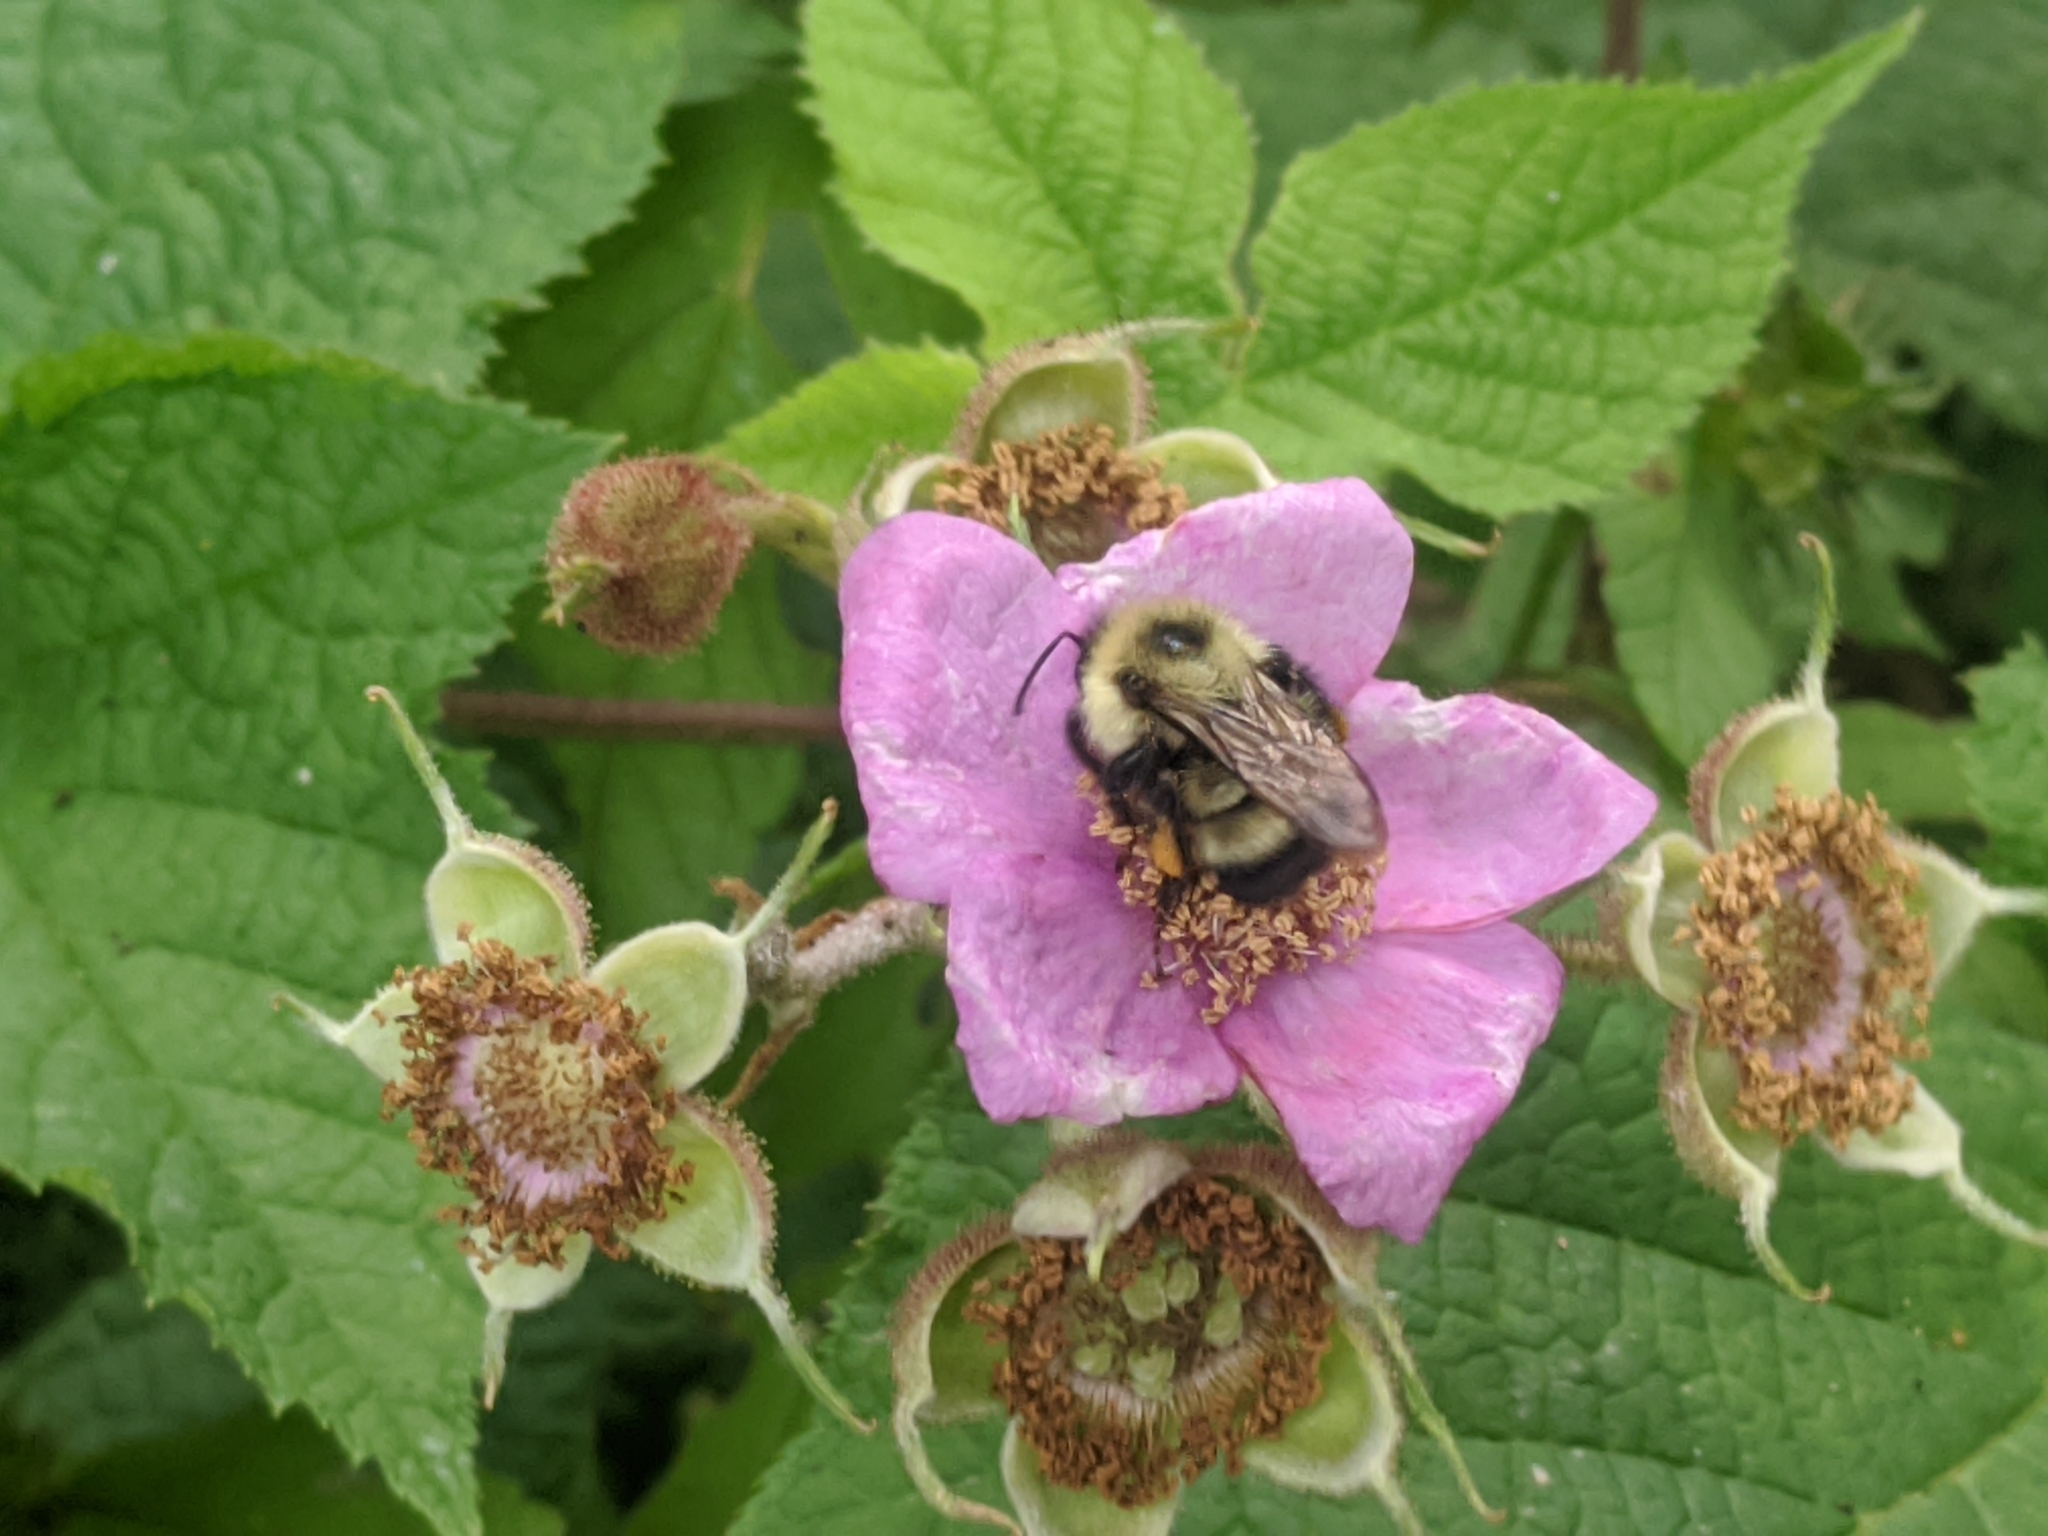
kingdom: Animalia
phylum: Arthropoda
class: Insecta
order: Hymenoptera
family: Apidae
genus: Pyrobombus
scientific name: Pyrobombus
